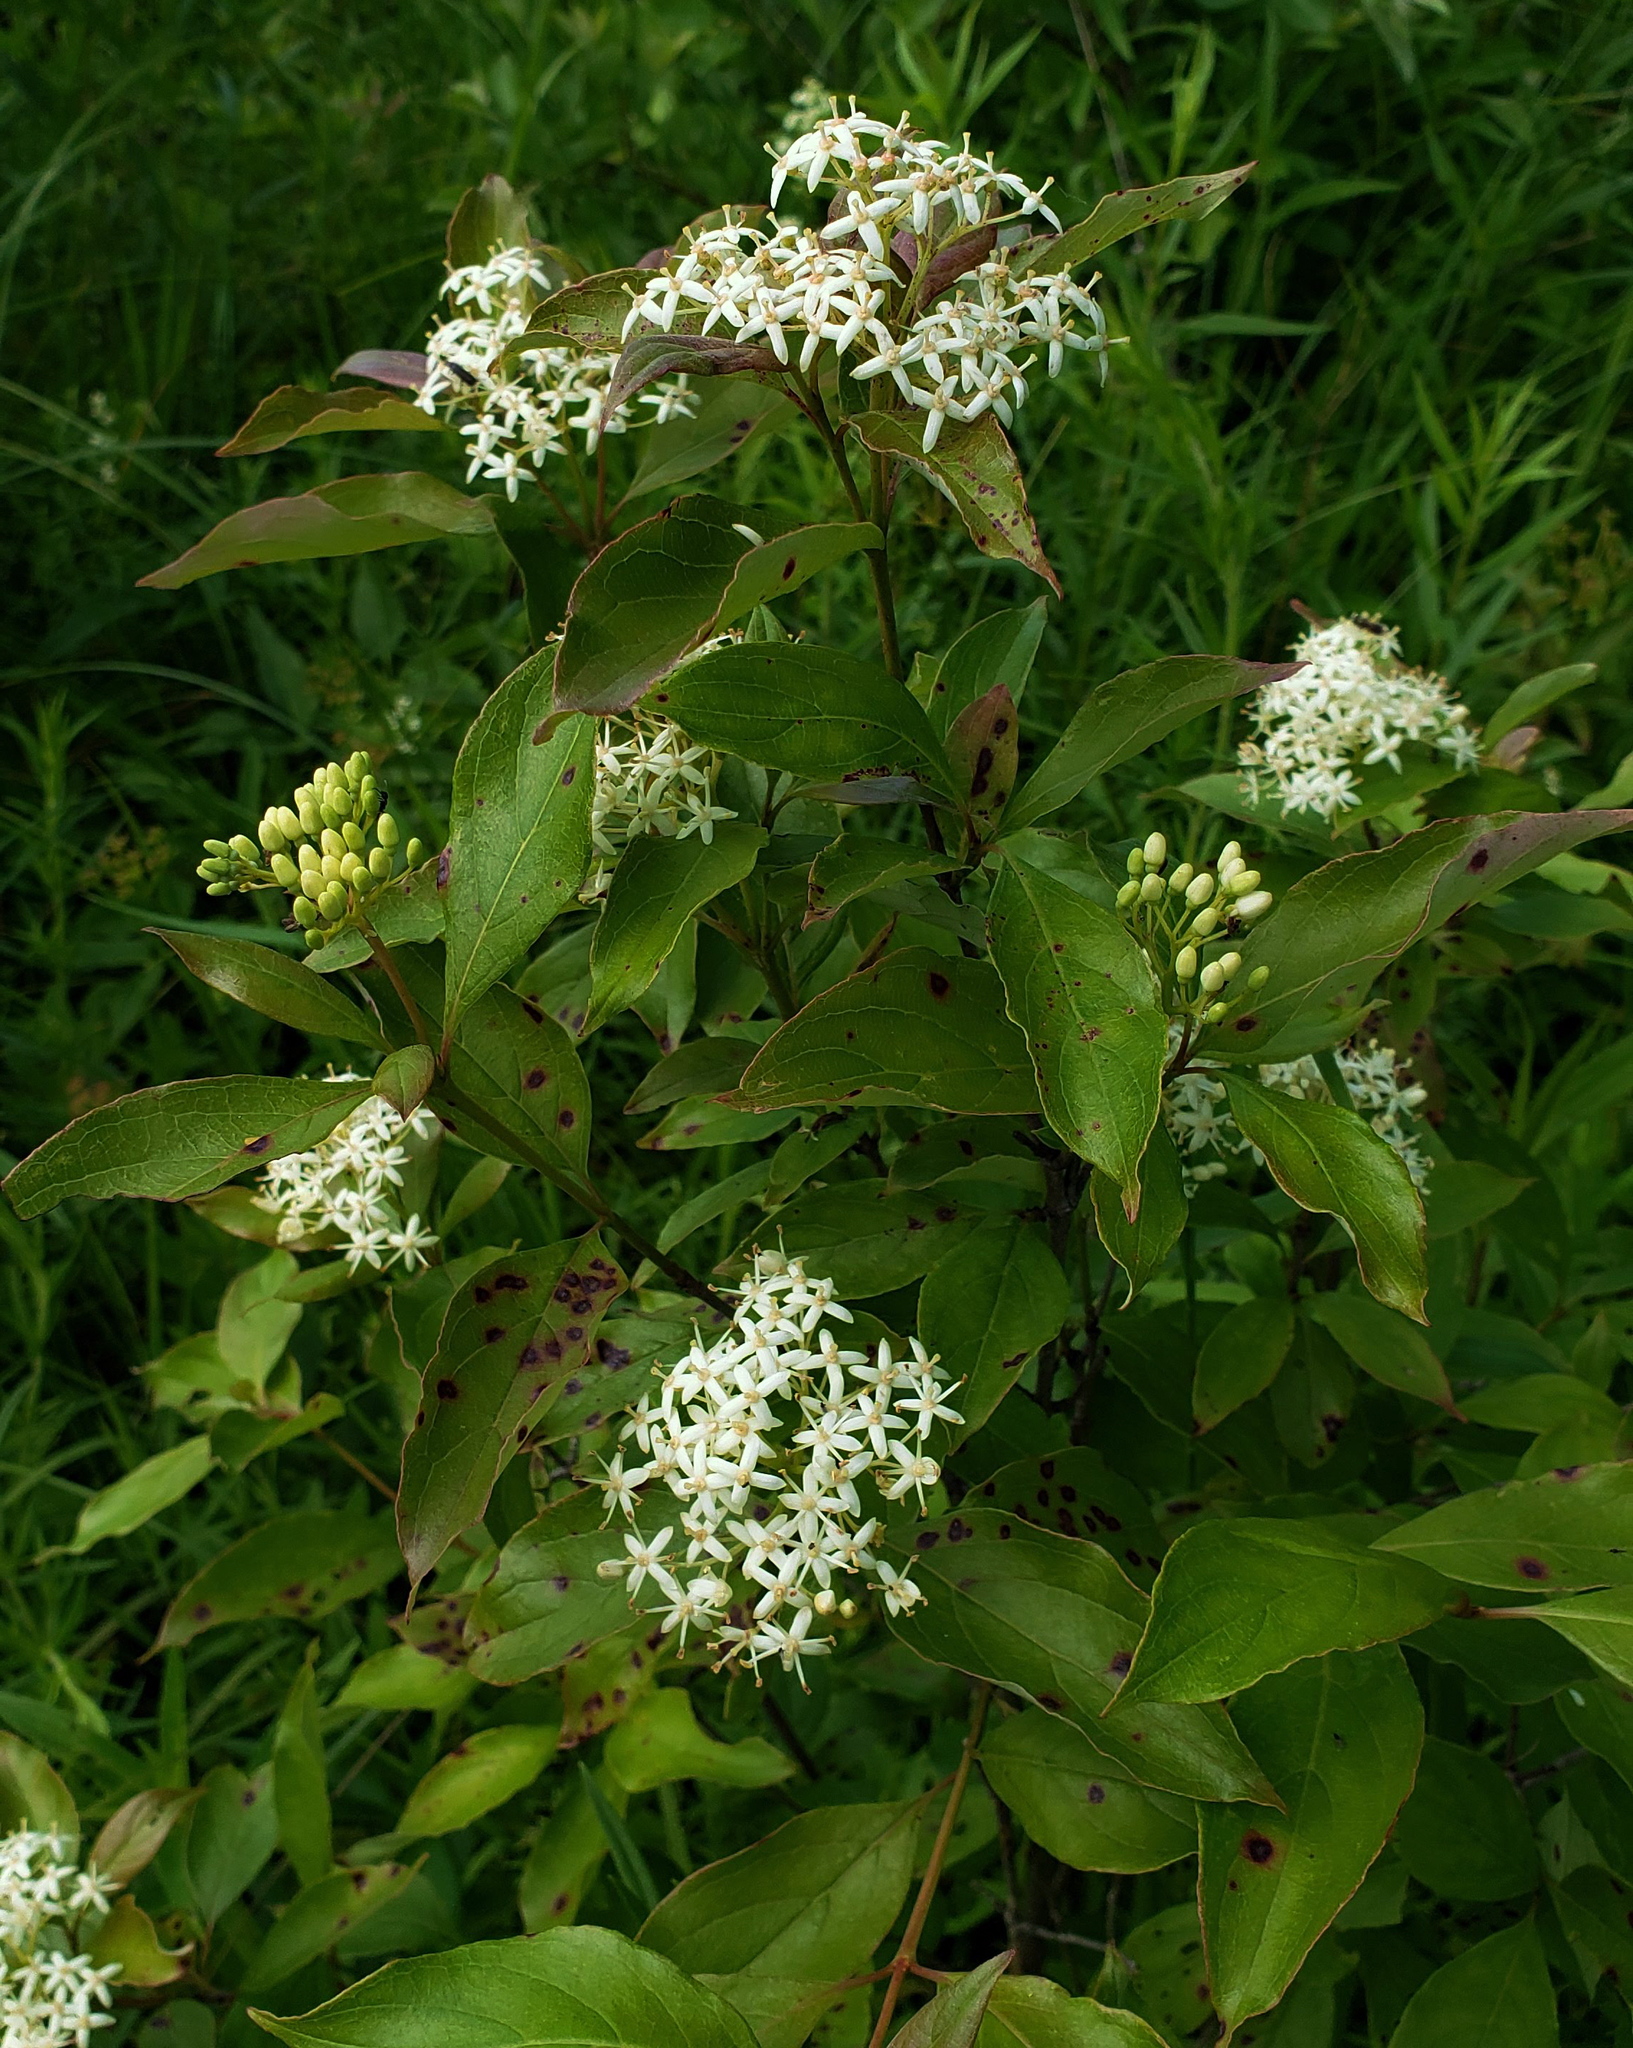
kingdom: Plantae
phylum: Tracheophyta
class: Magnoliopsida
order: Cornales
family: Cornaceae
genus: Cornus
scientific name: Cornus racemosa
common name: Panicled dogwood
